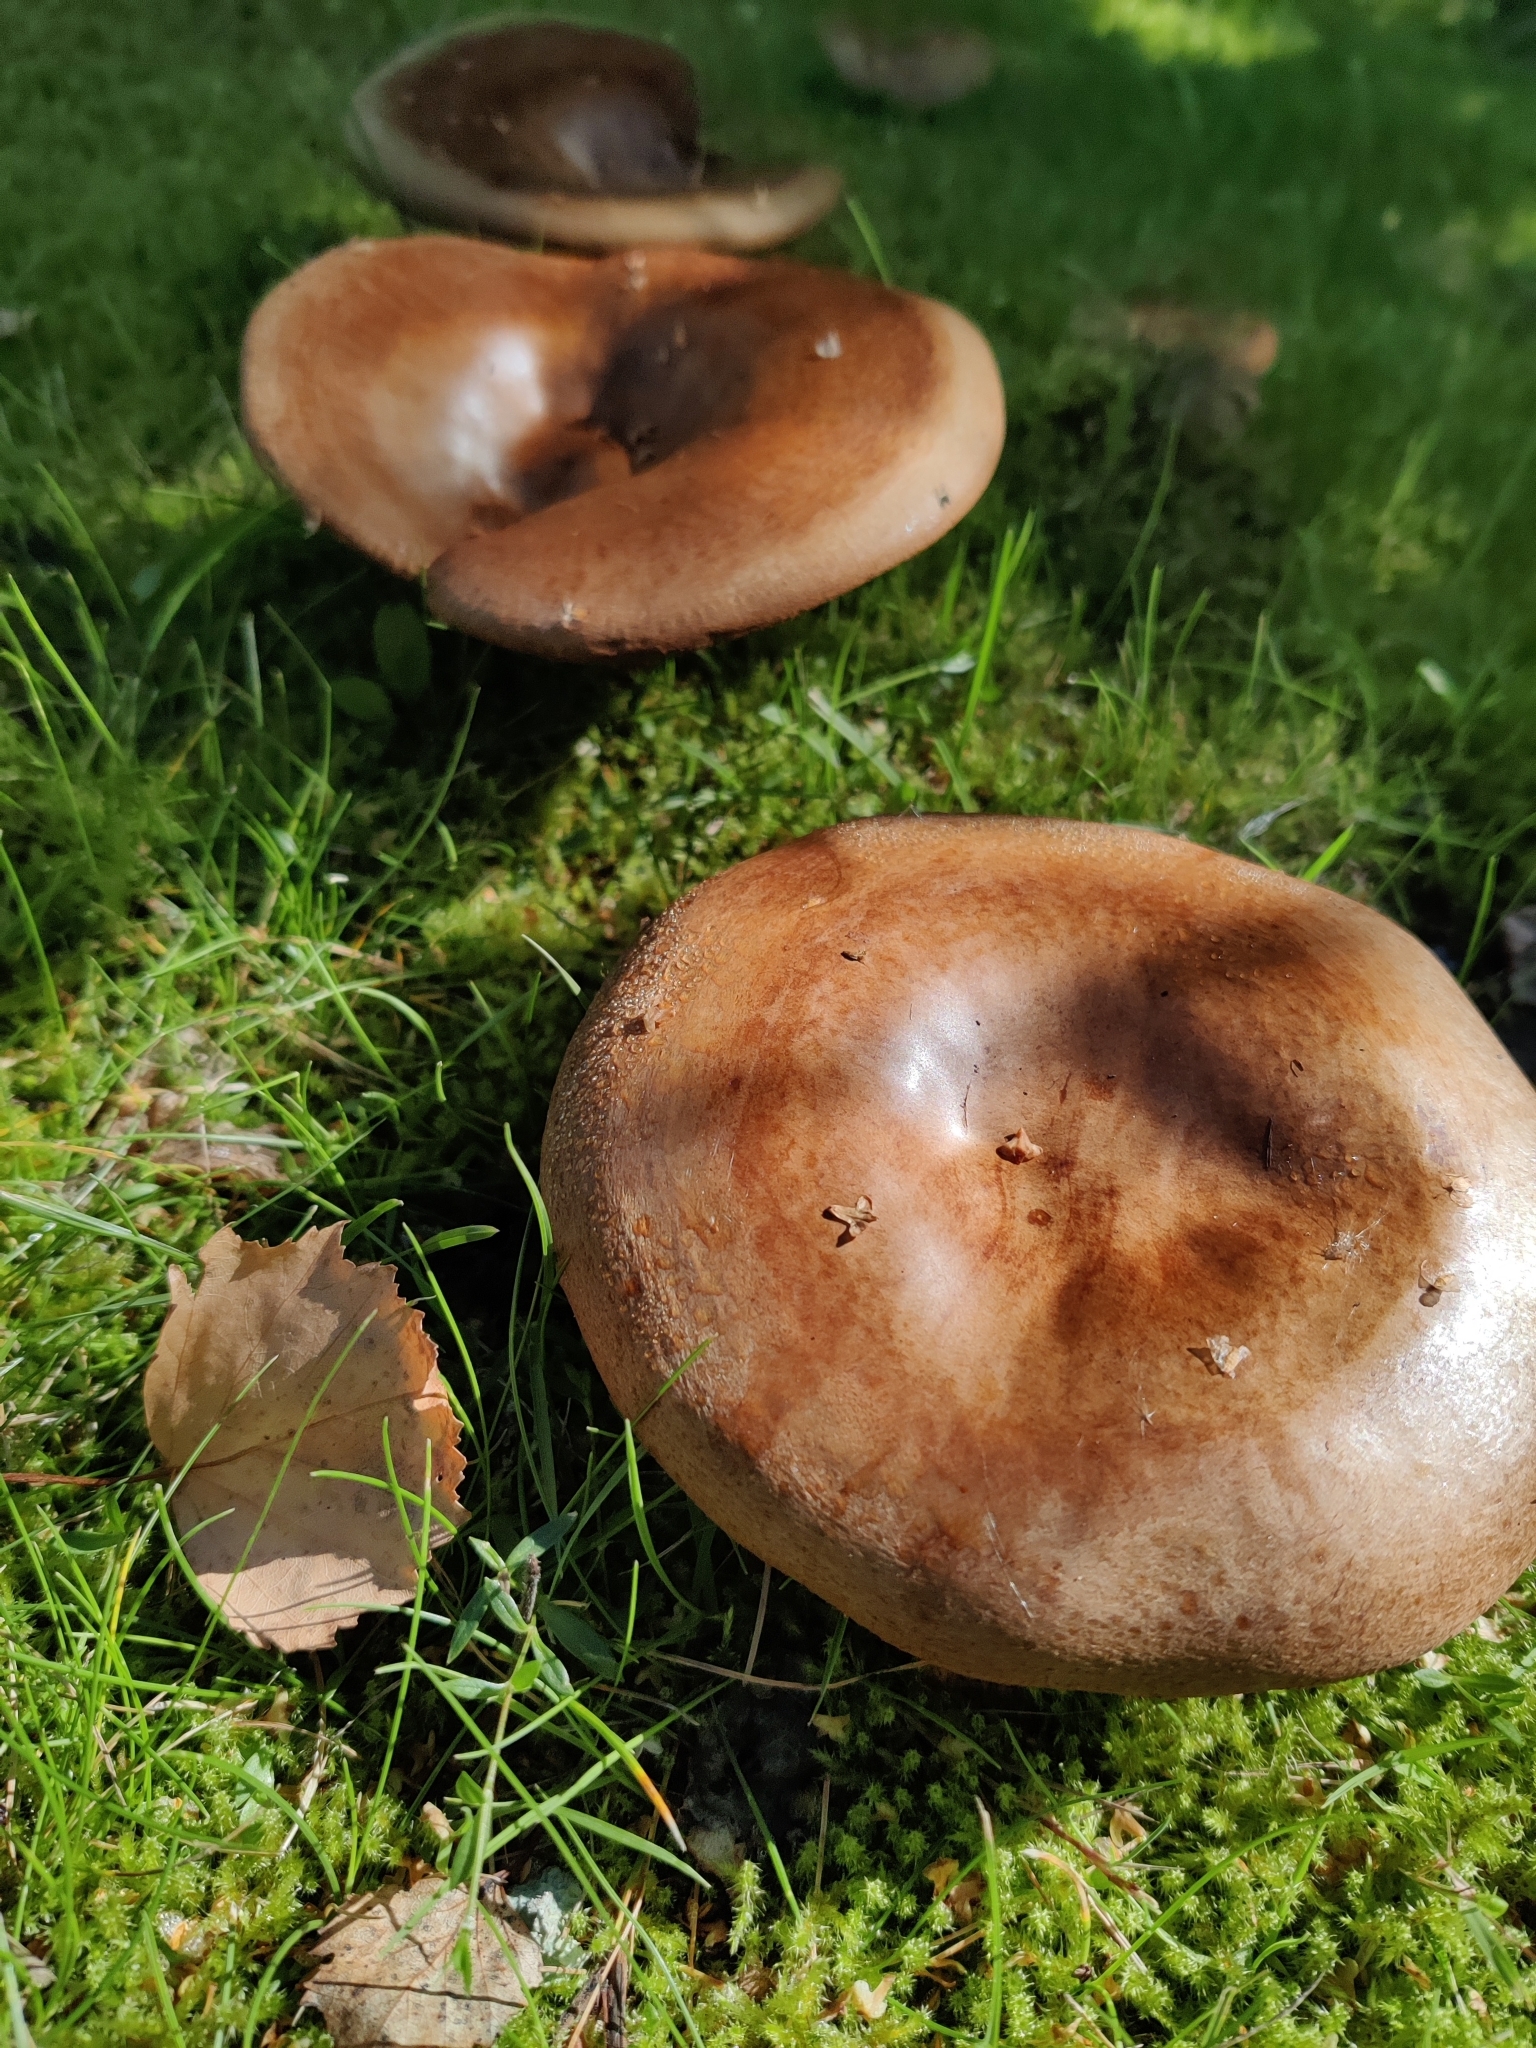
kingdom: Fungi
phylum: Basidiomycota
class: Agaricomycetes
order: Boletales
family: Paxillaceae
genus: Paxillus
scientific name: Paxillus involutus
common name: Brown roll rim
